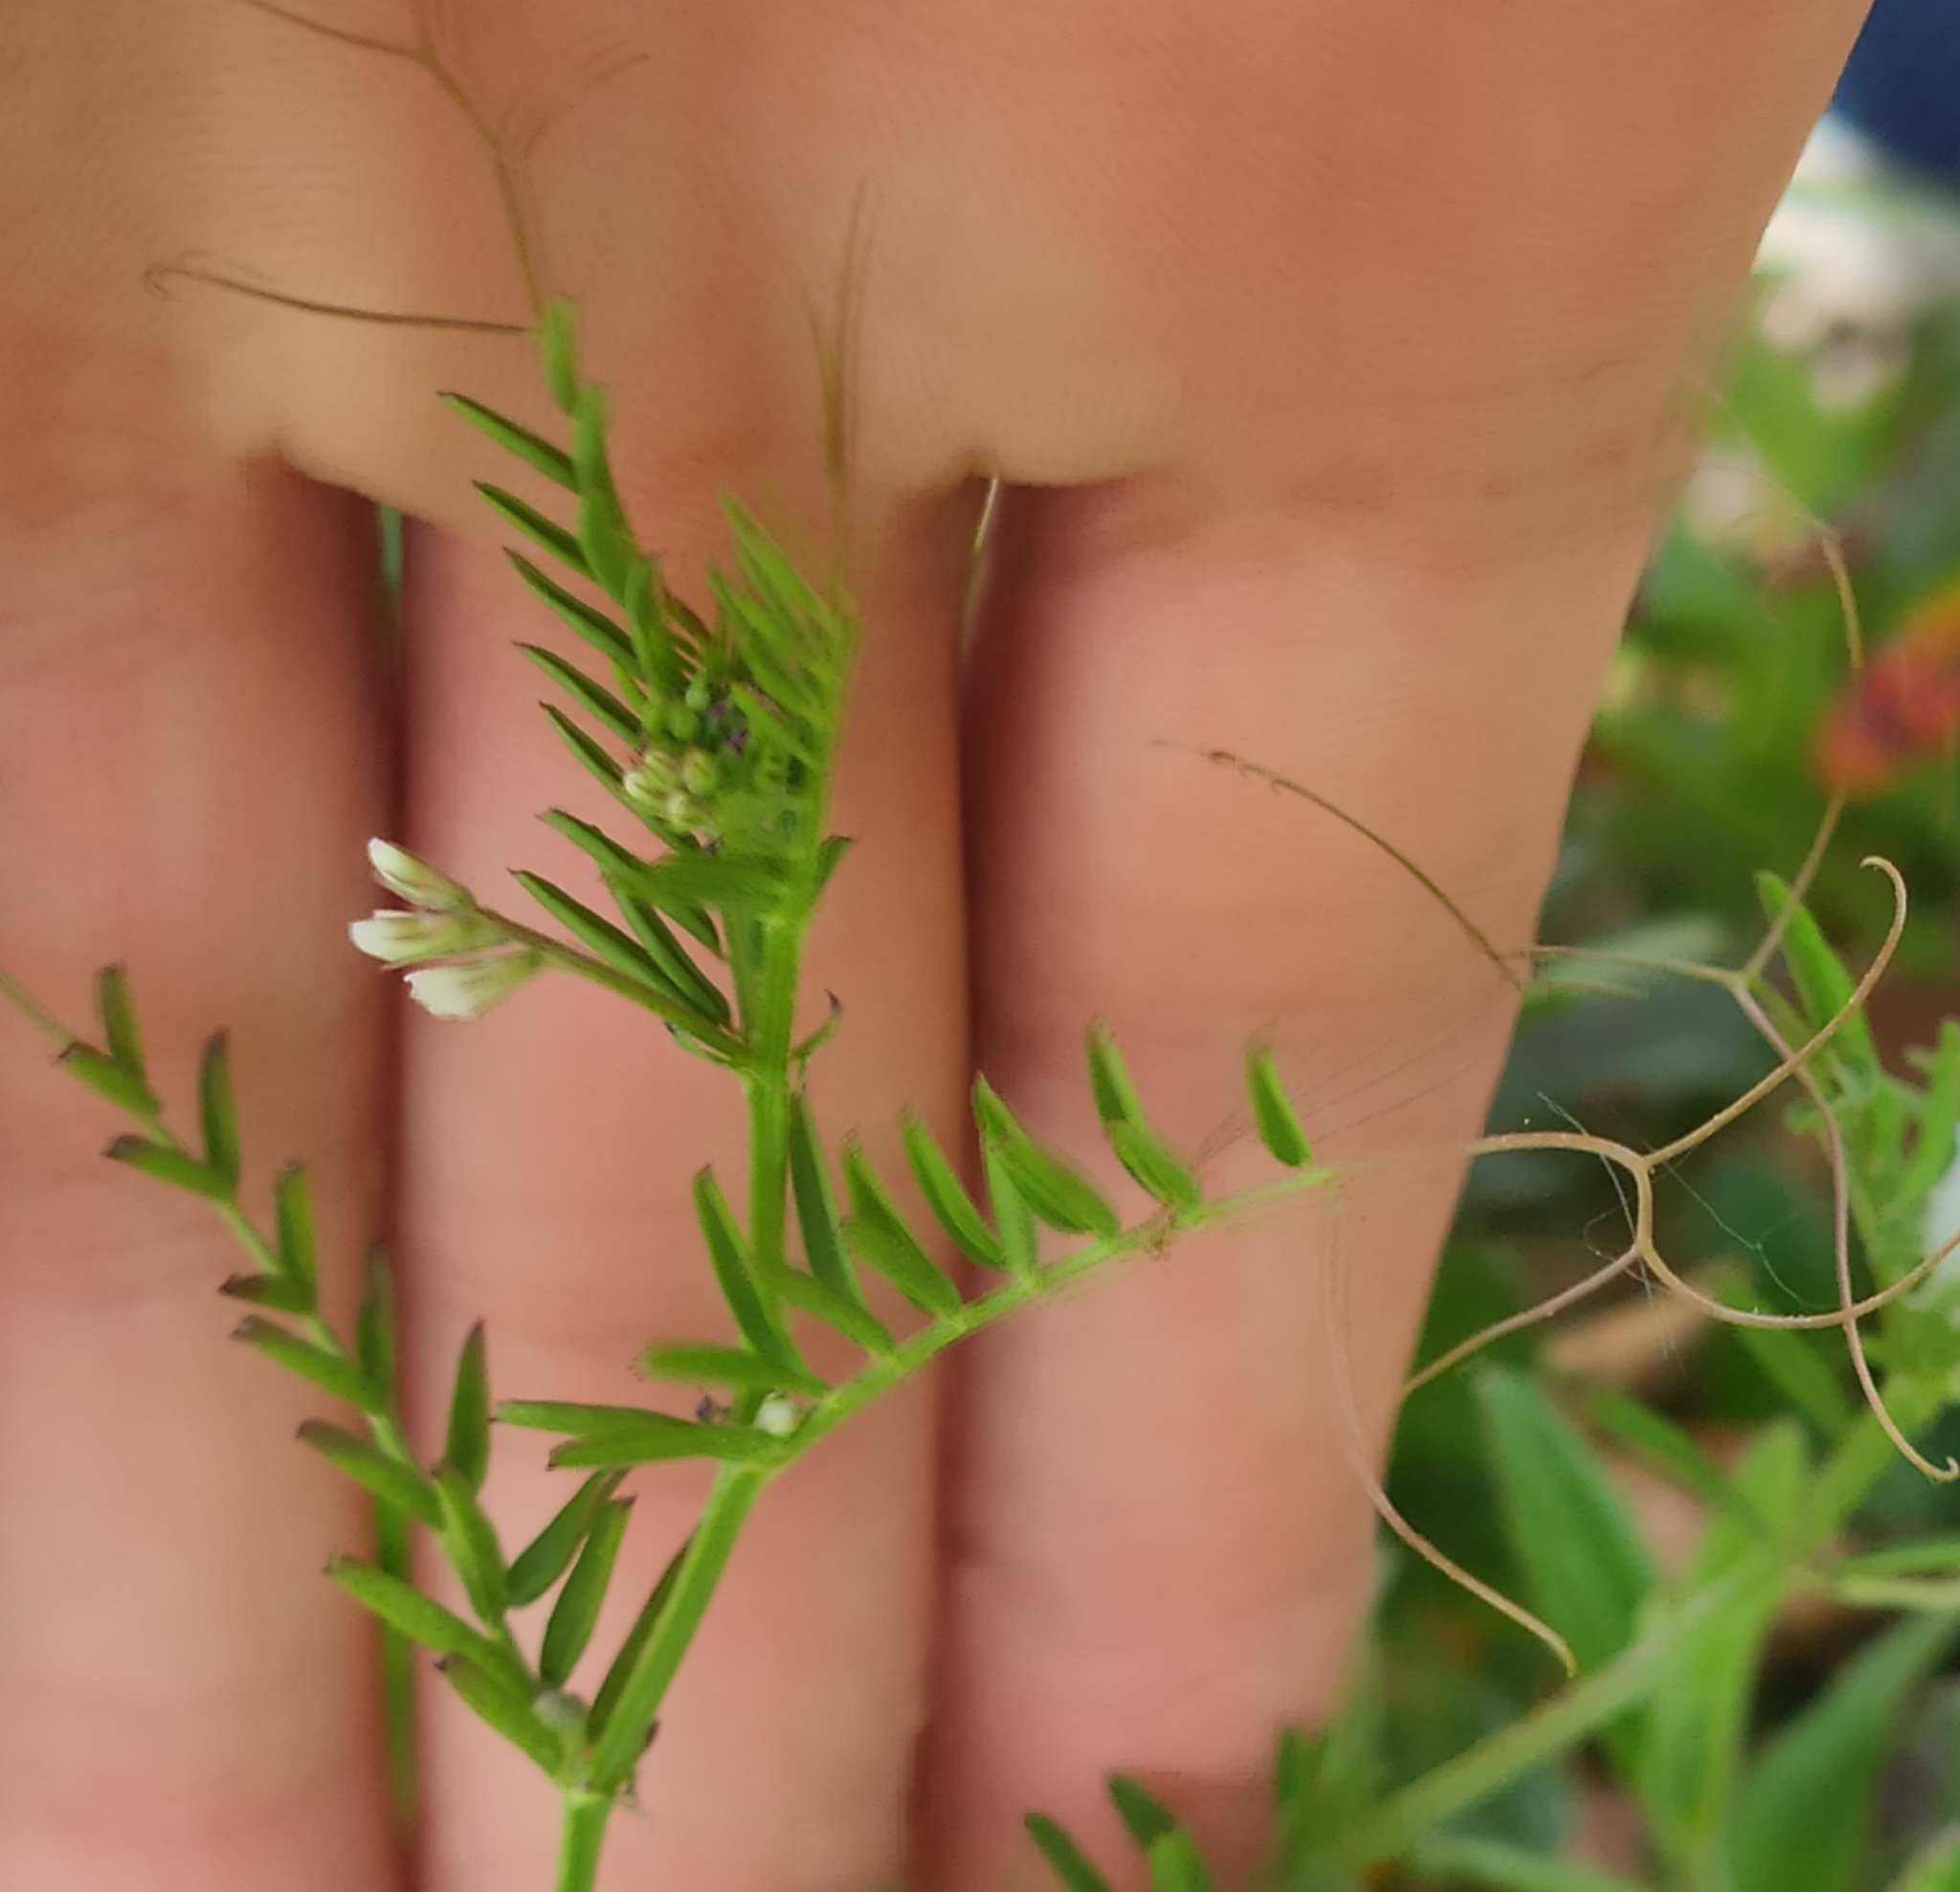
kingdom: Plantae
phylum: Tracheophyta
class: Magnoliopsida
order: Fabales
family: Fabaceae
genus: Vicia
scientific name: Vicia hirsuta
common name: Tiny vetch
